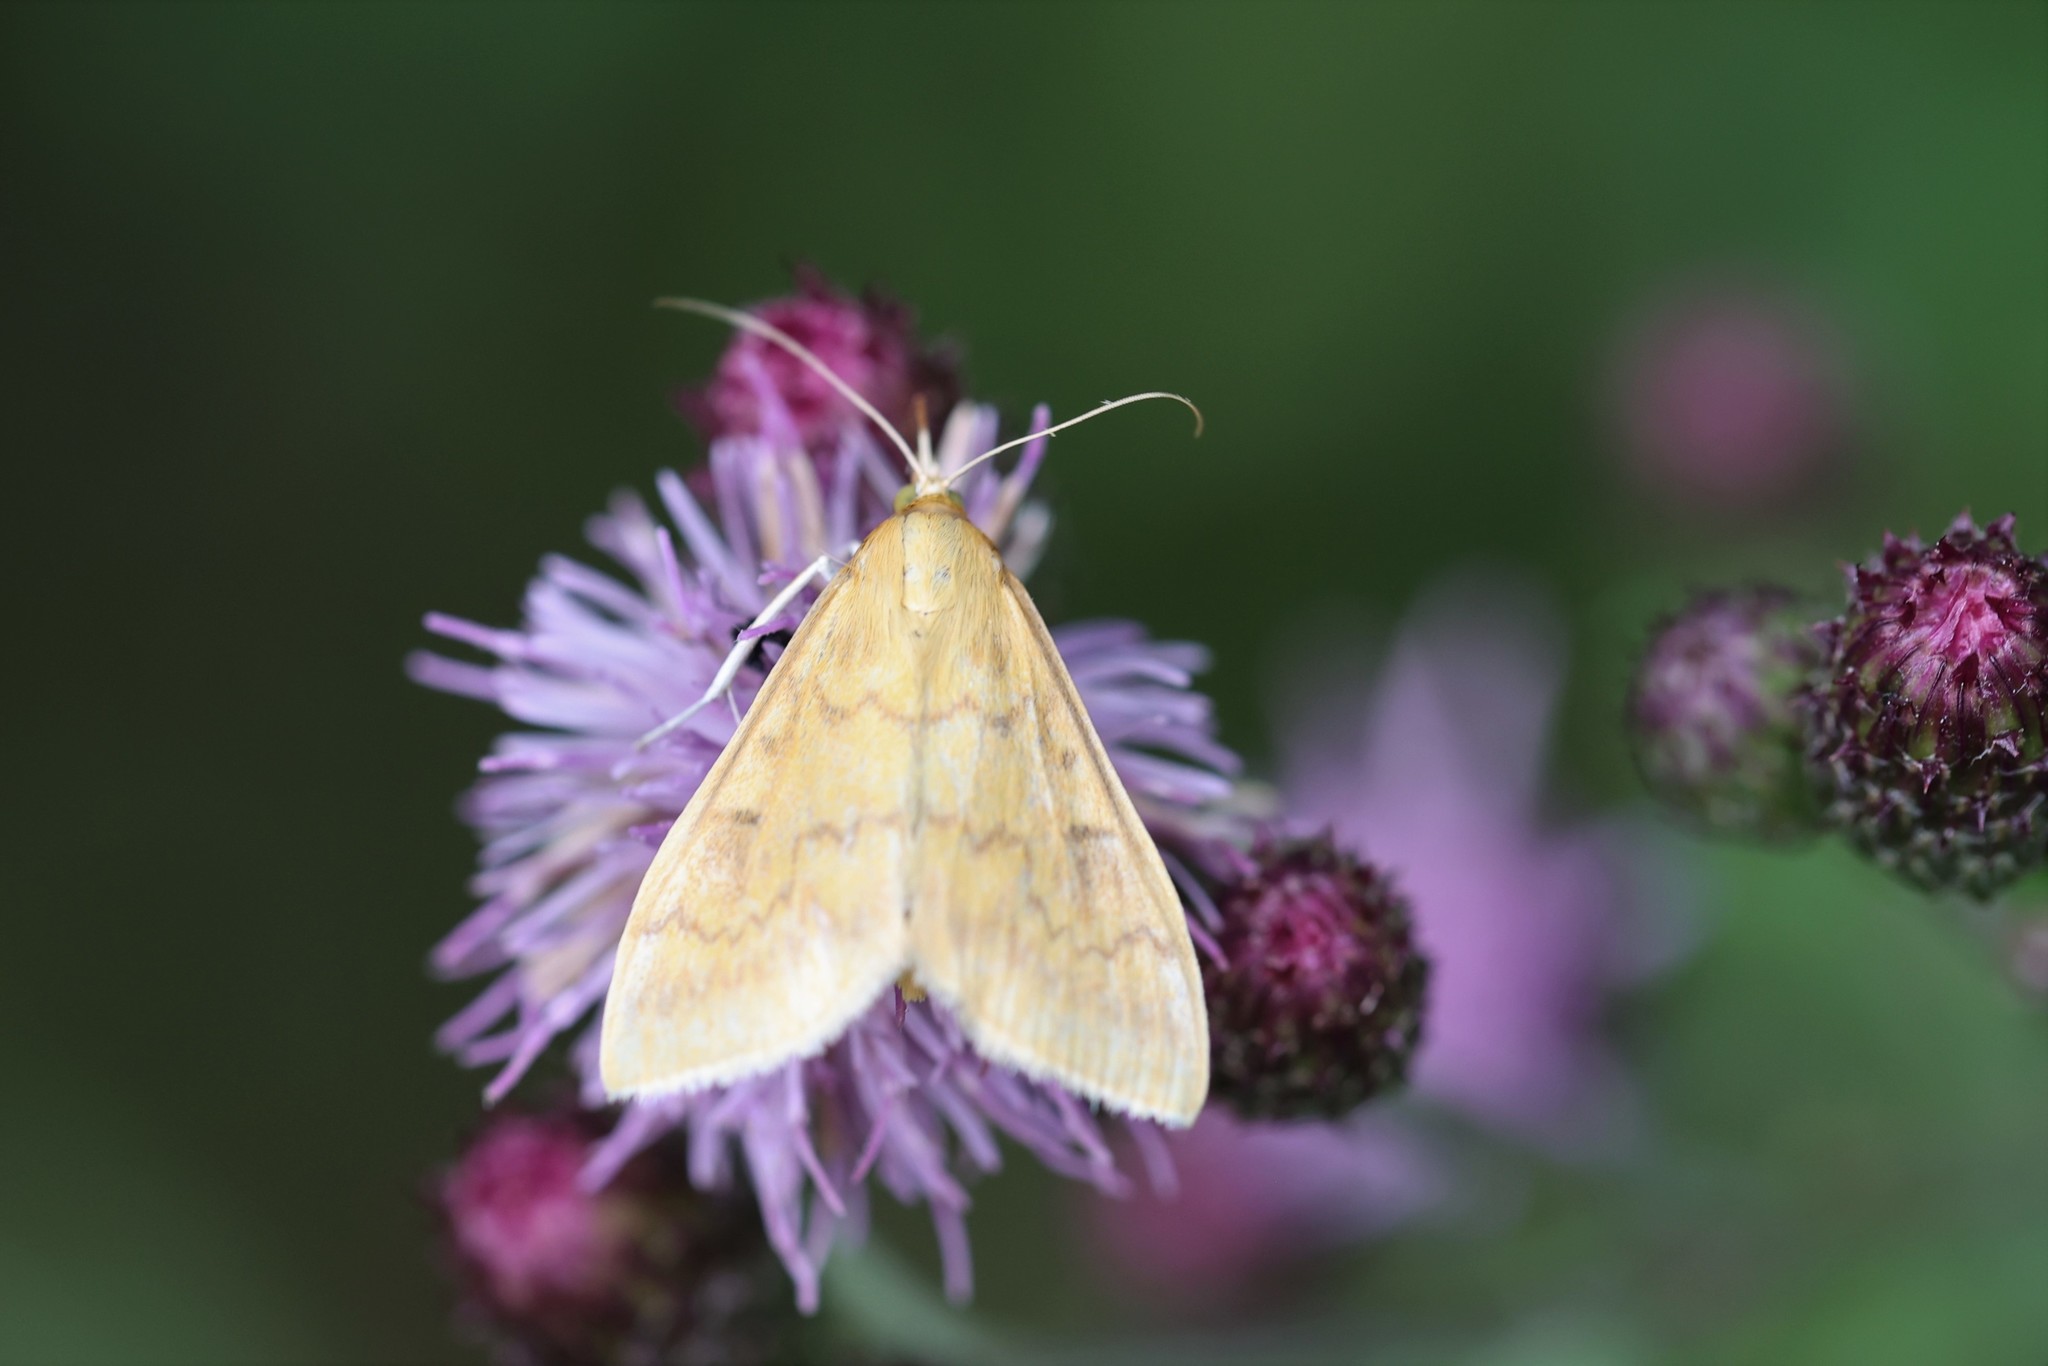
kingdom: Animalia
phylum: Arthropoda
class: Insecta
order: Lepidoptera
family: Crambidae
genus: Ostrinia
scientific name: Ostrinia nubilalis
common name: European corn borer
